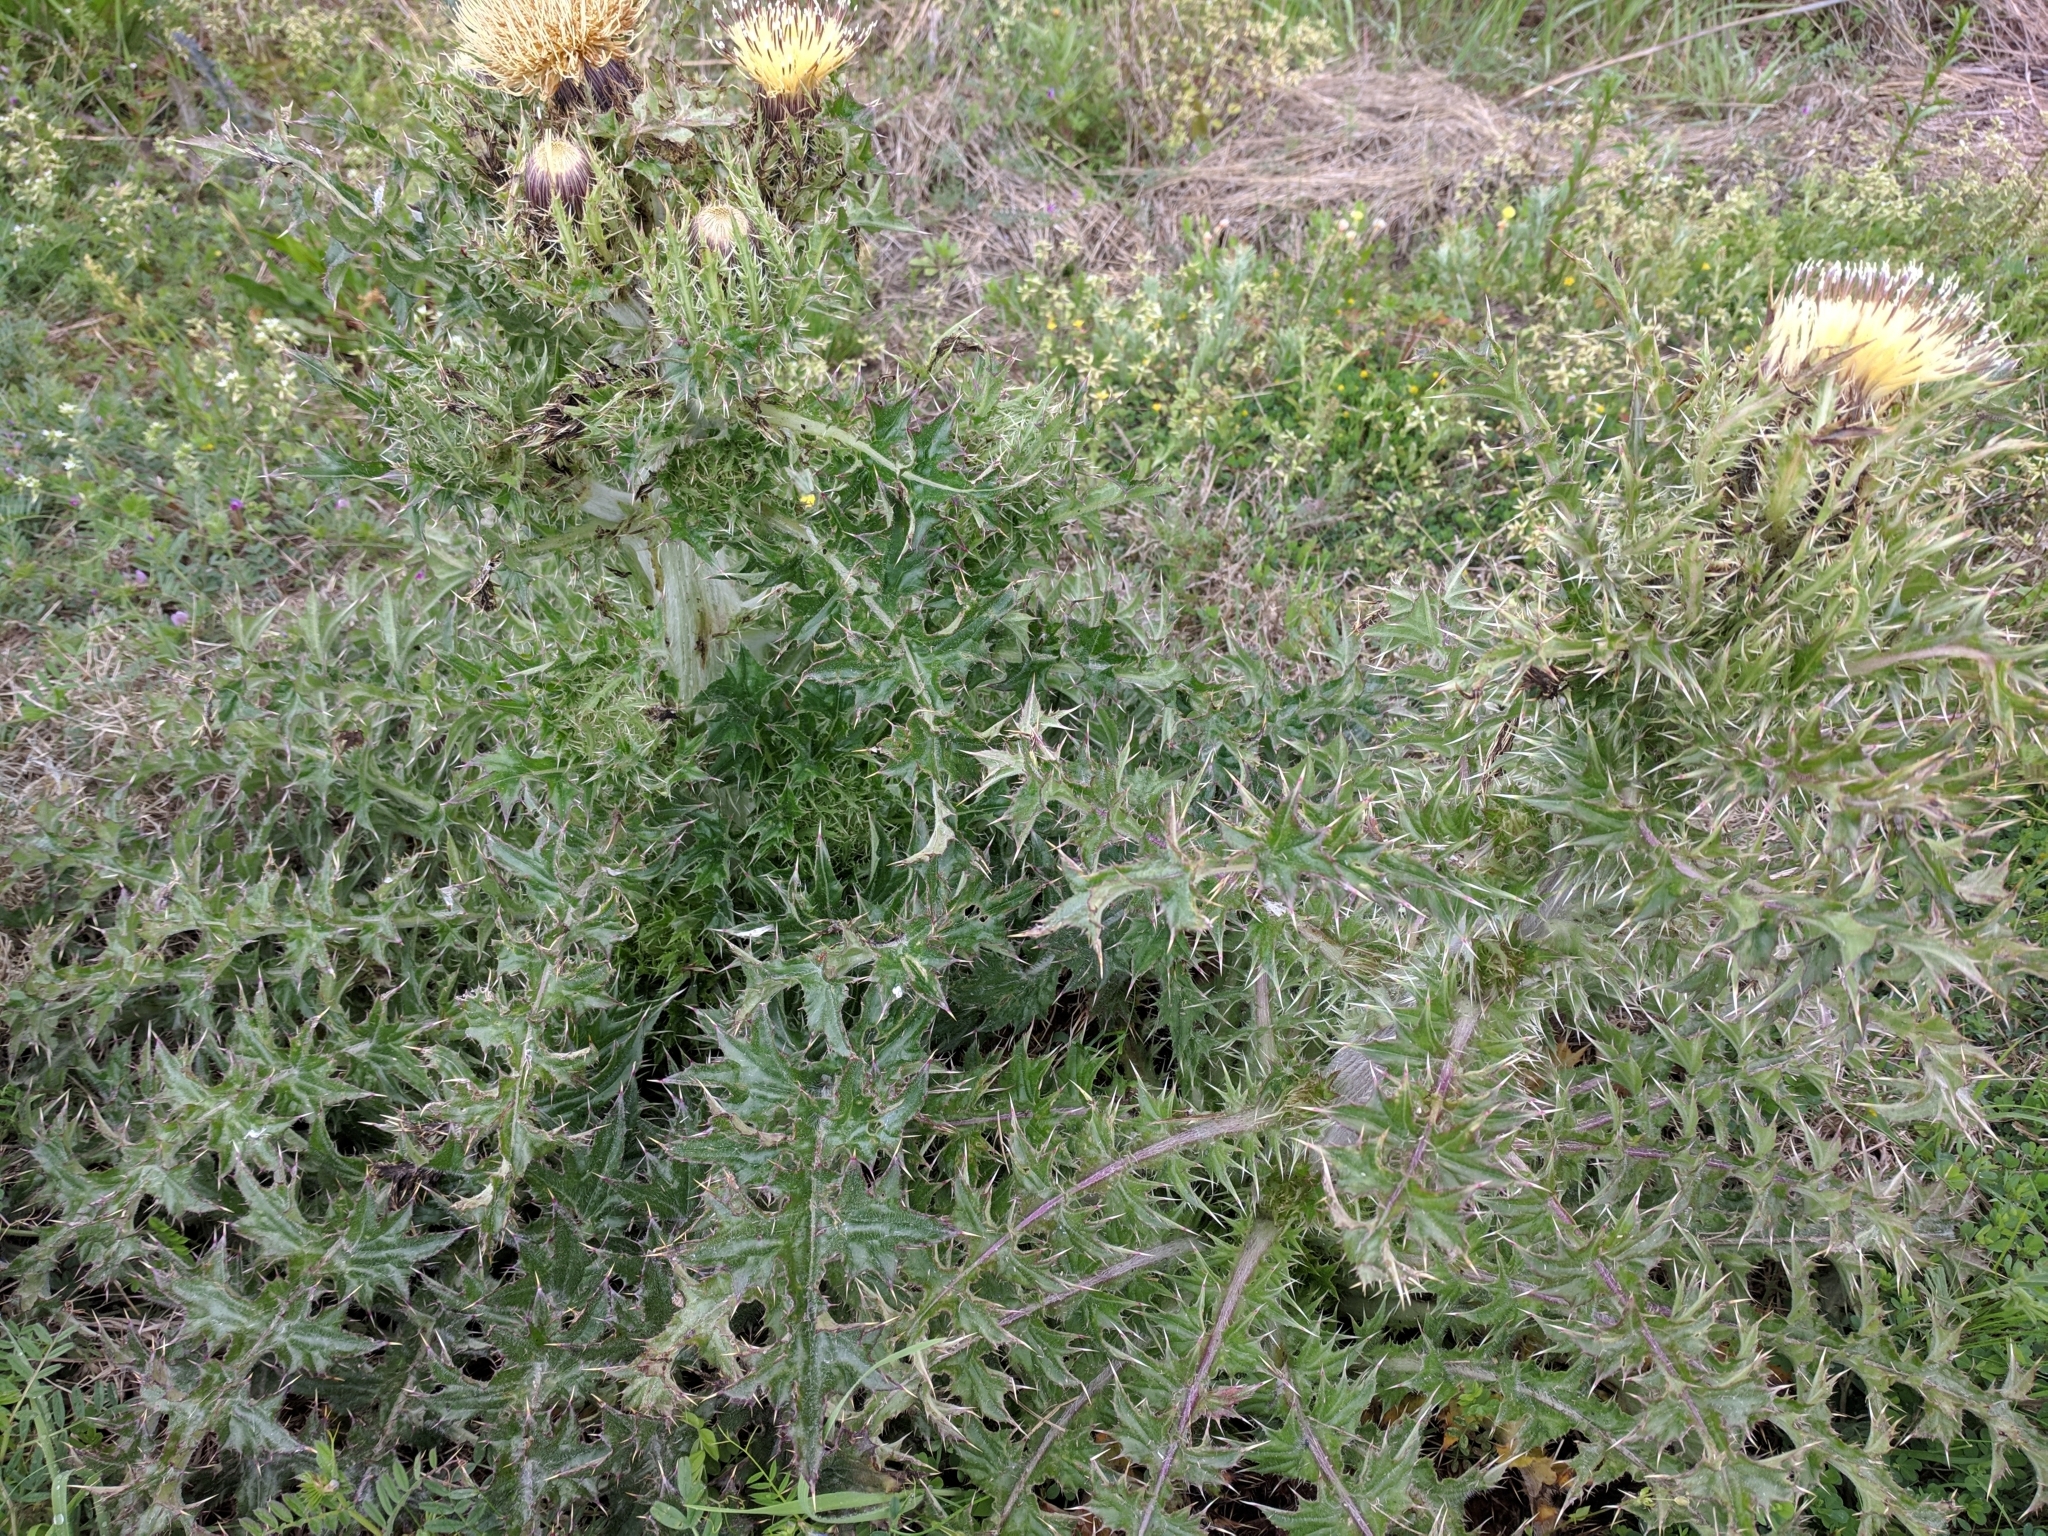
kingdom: Plantae
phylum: Tracheophyta
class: Magnoliopsida
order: Asterales
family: Asteraceae
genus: Cirsium
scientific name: Cirsium horridulum
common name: Bristly thistle
